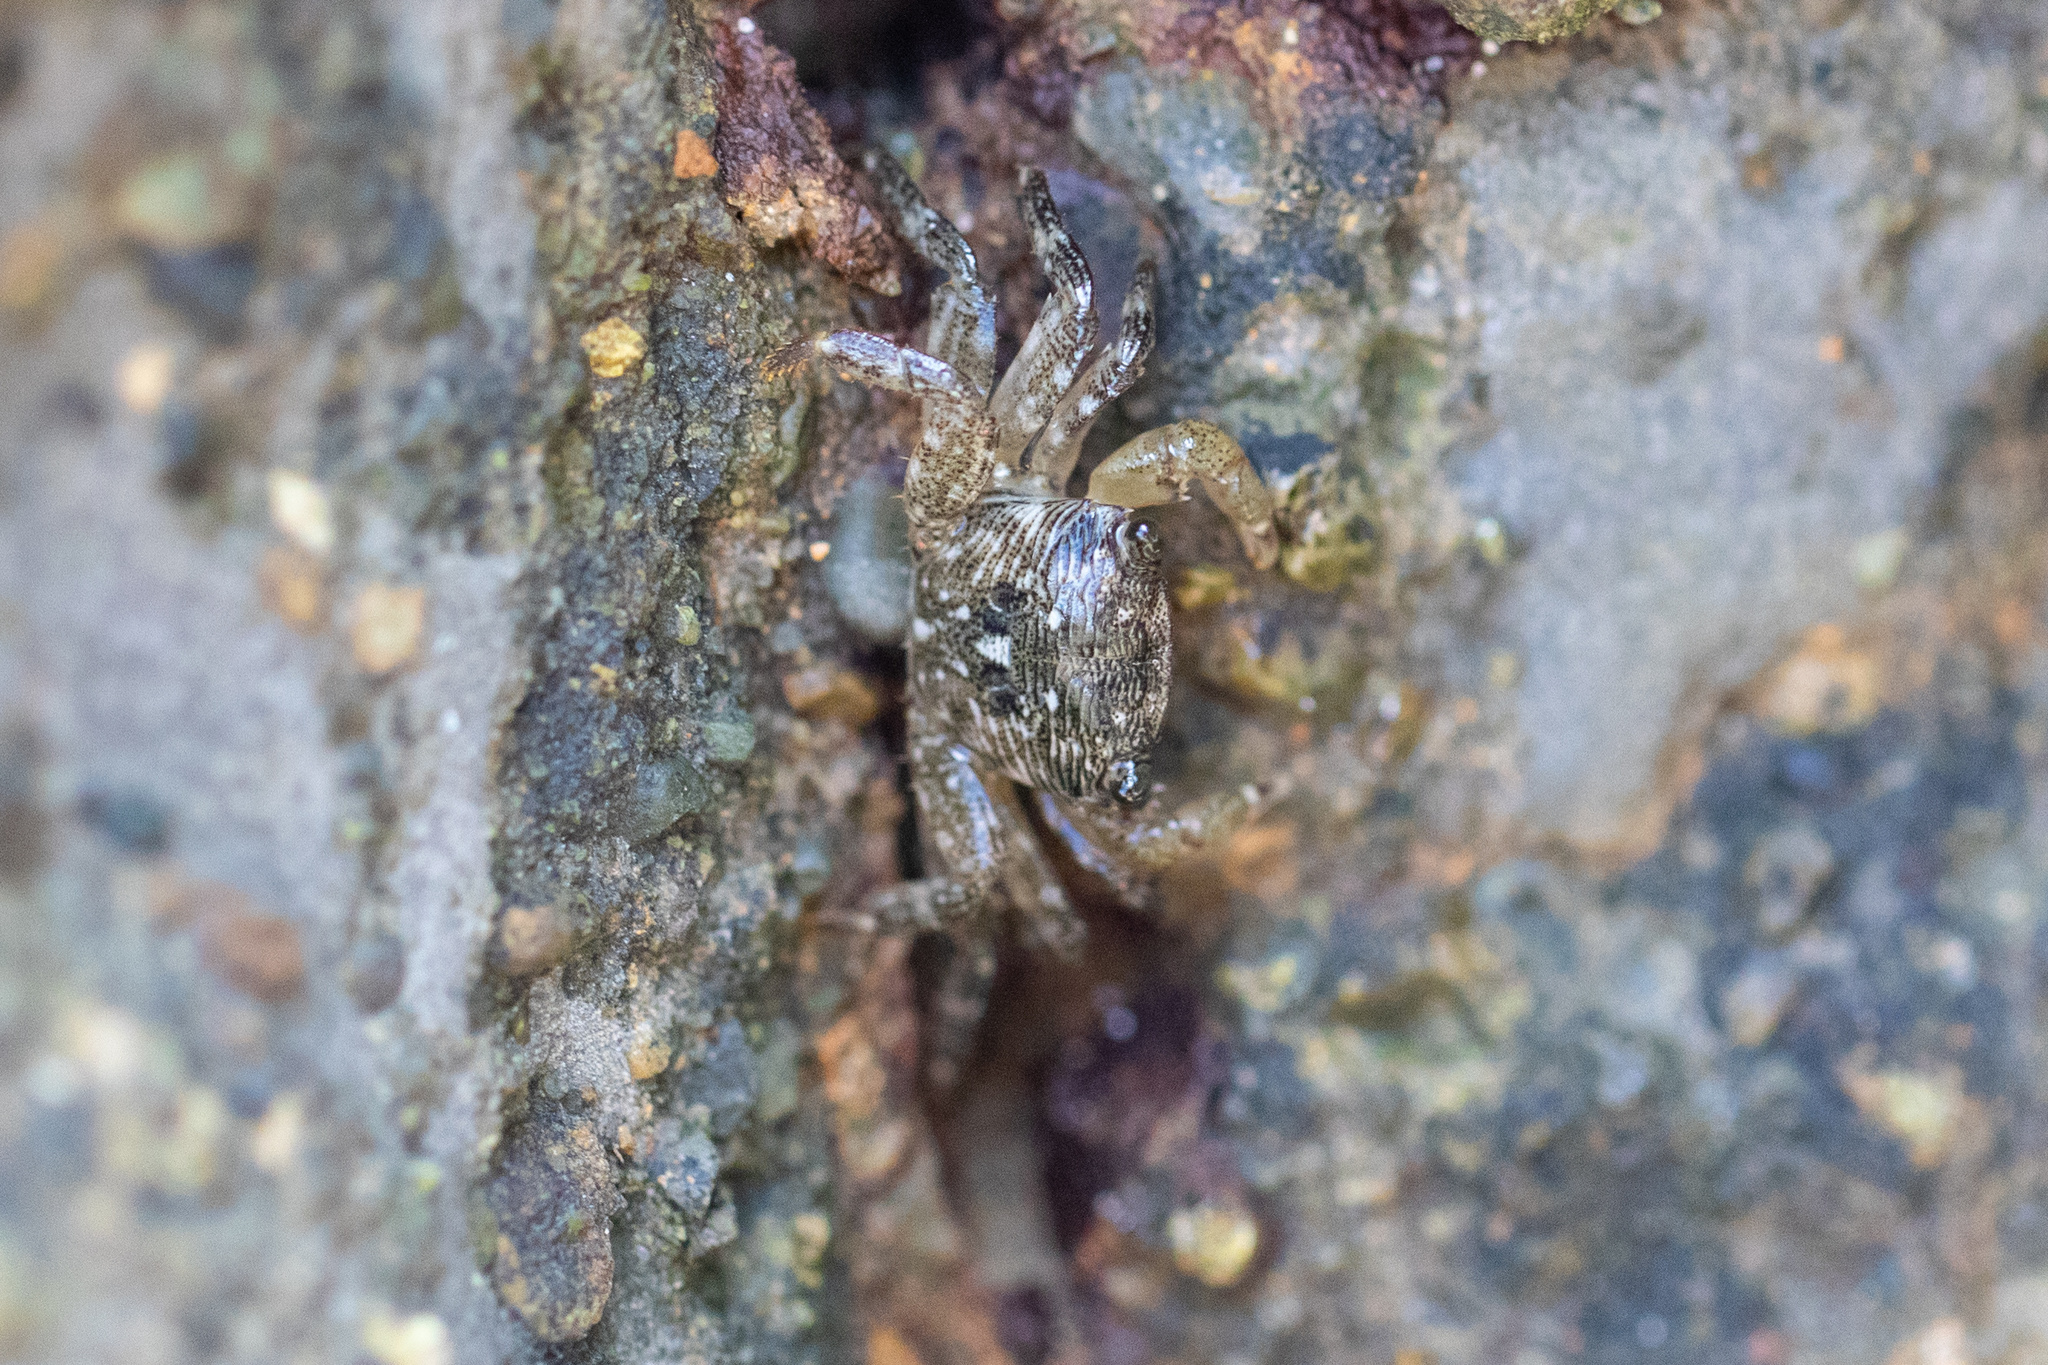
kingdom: Animalia
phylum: Arthropoda
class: Malacostraca
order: Decapoda
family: Grapsidae
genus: Pachygrapsus
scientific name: Pachygrapsus crassipes
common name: Striped shore crab
